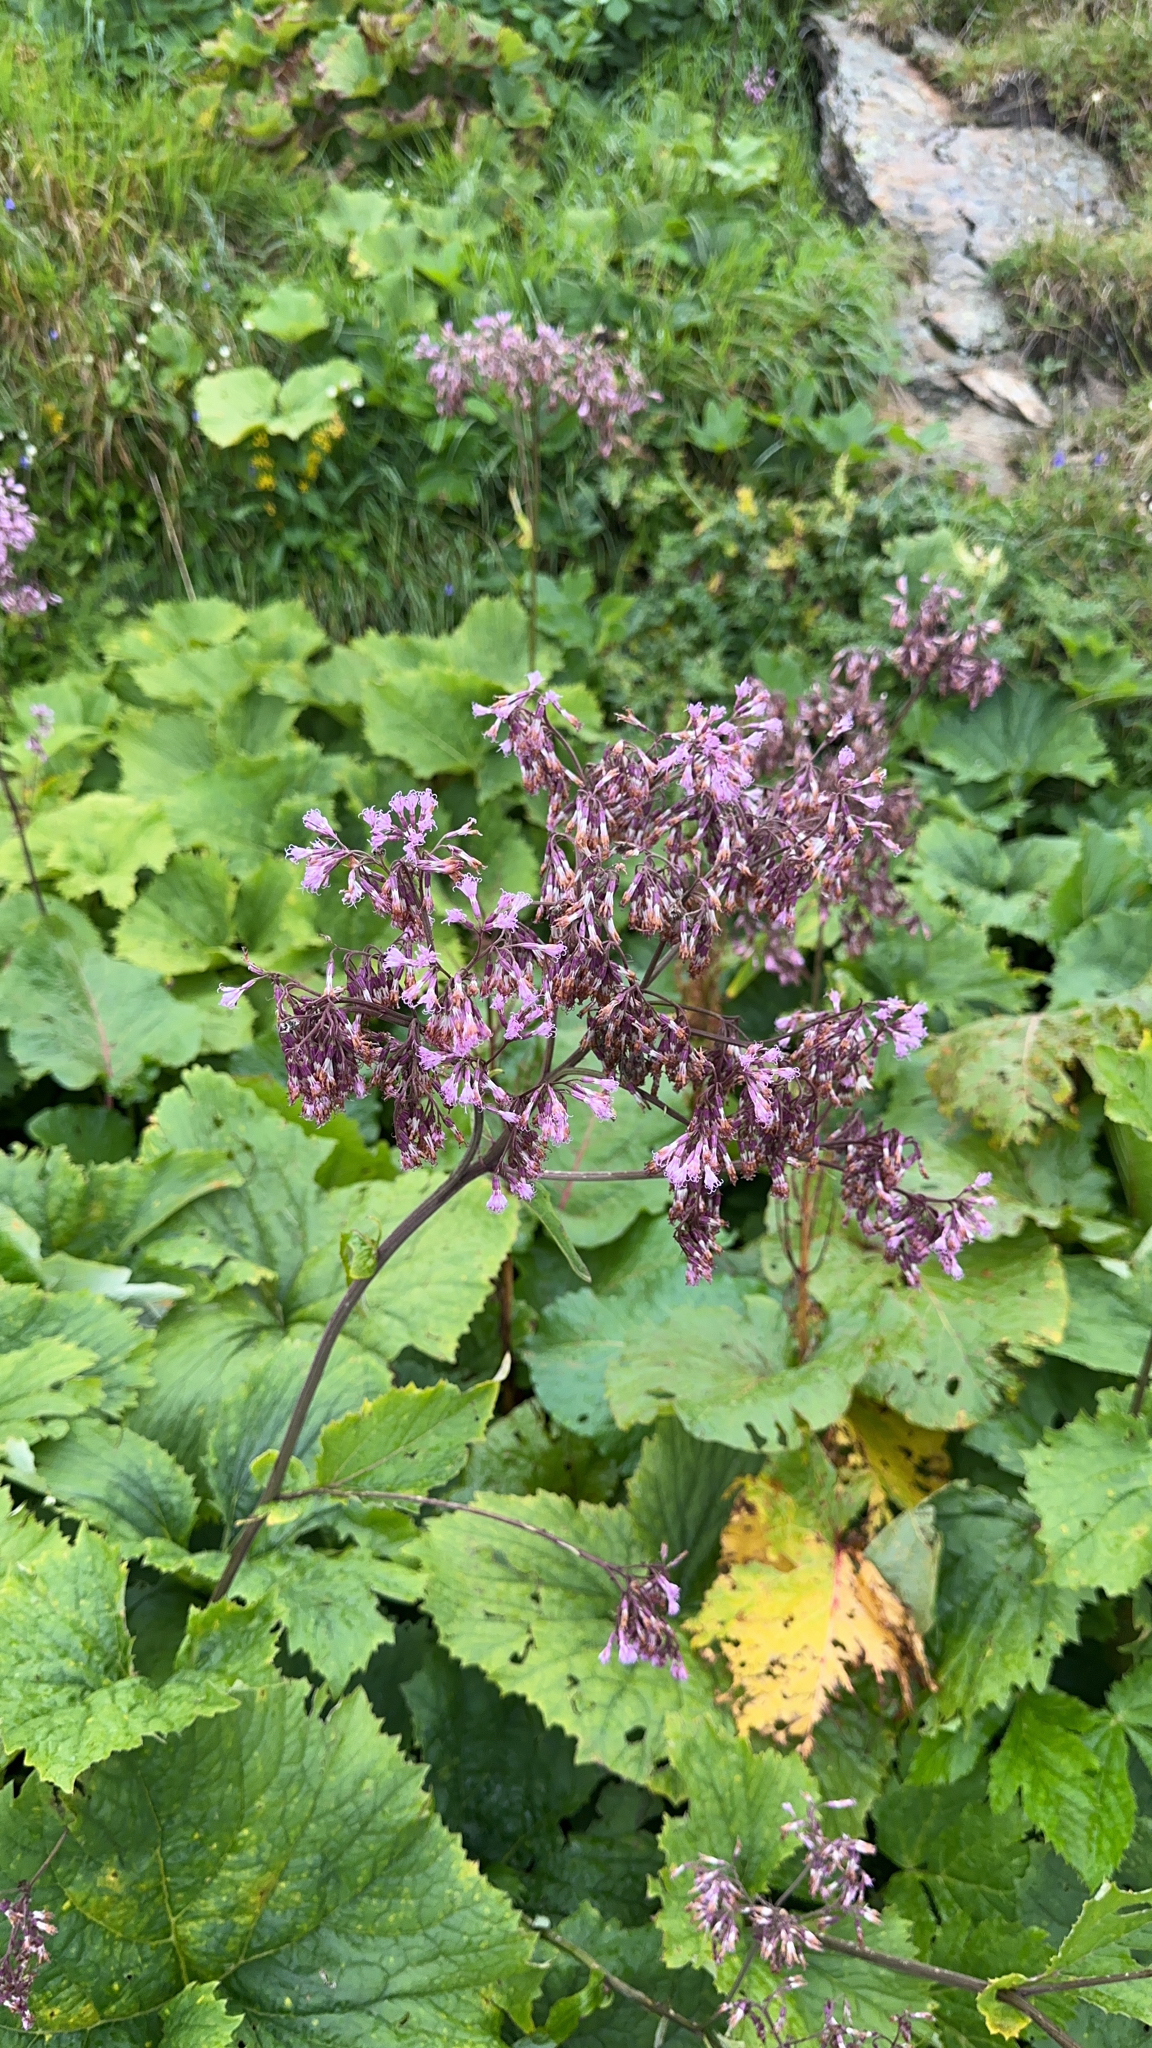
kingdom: Plantae
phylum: Tracheophyta
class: Magnoliopsida
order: Asterales
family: Asteraceae
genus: Adenostyles
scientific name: Adenostyles alliariae
